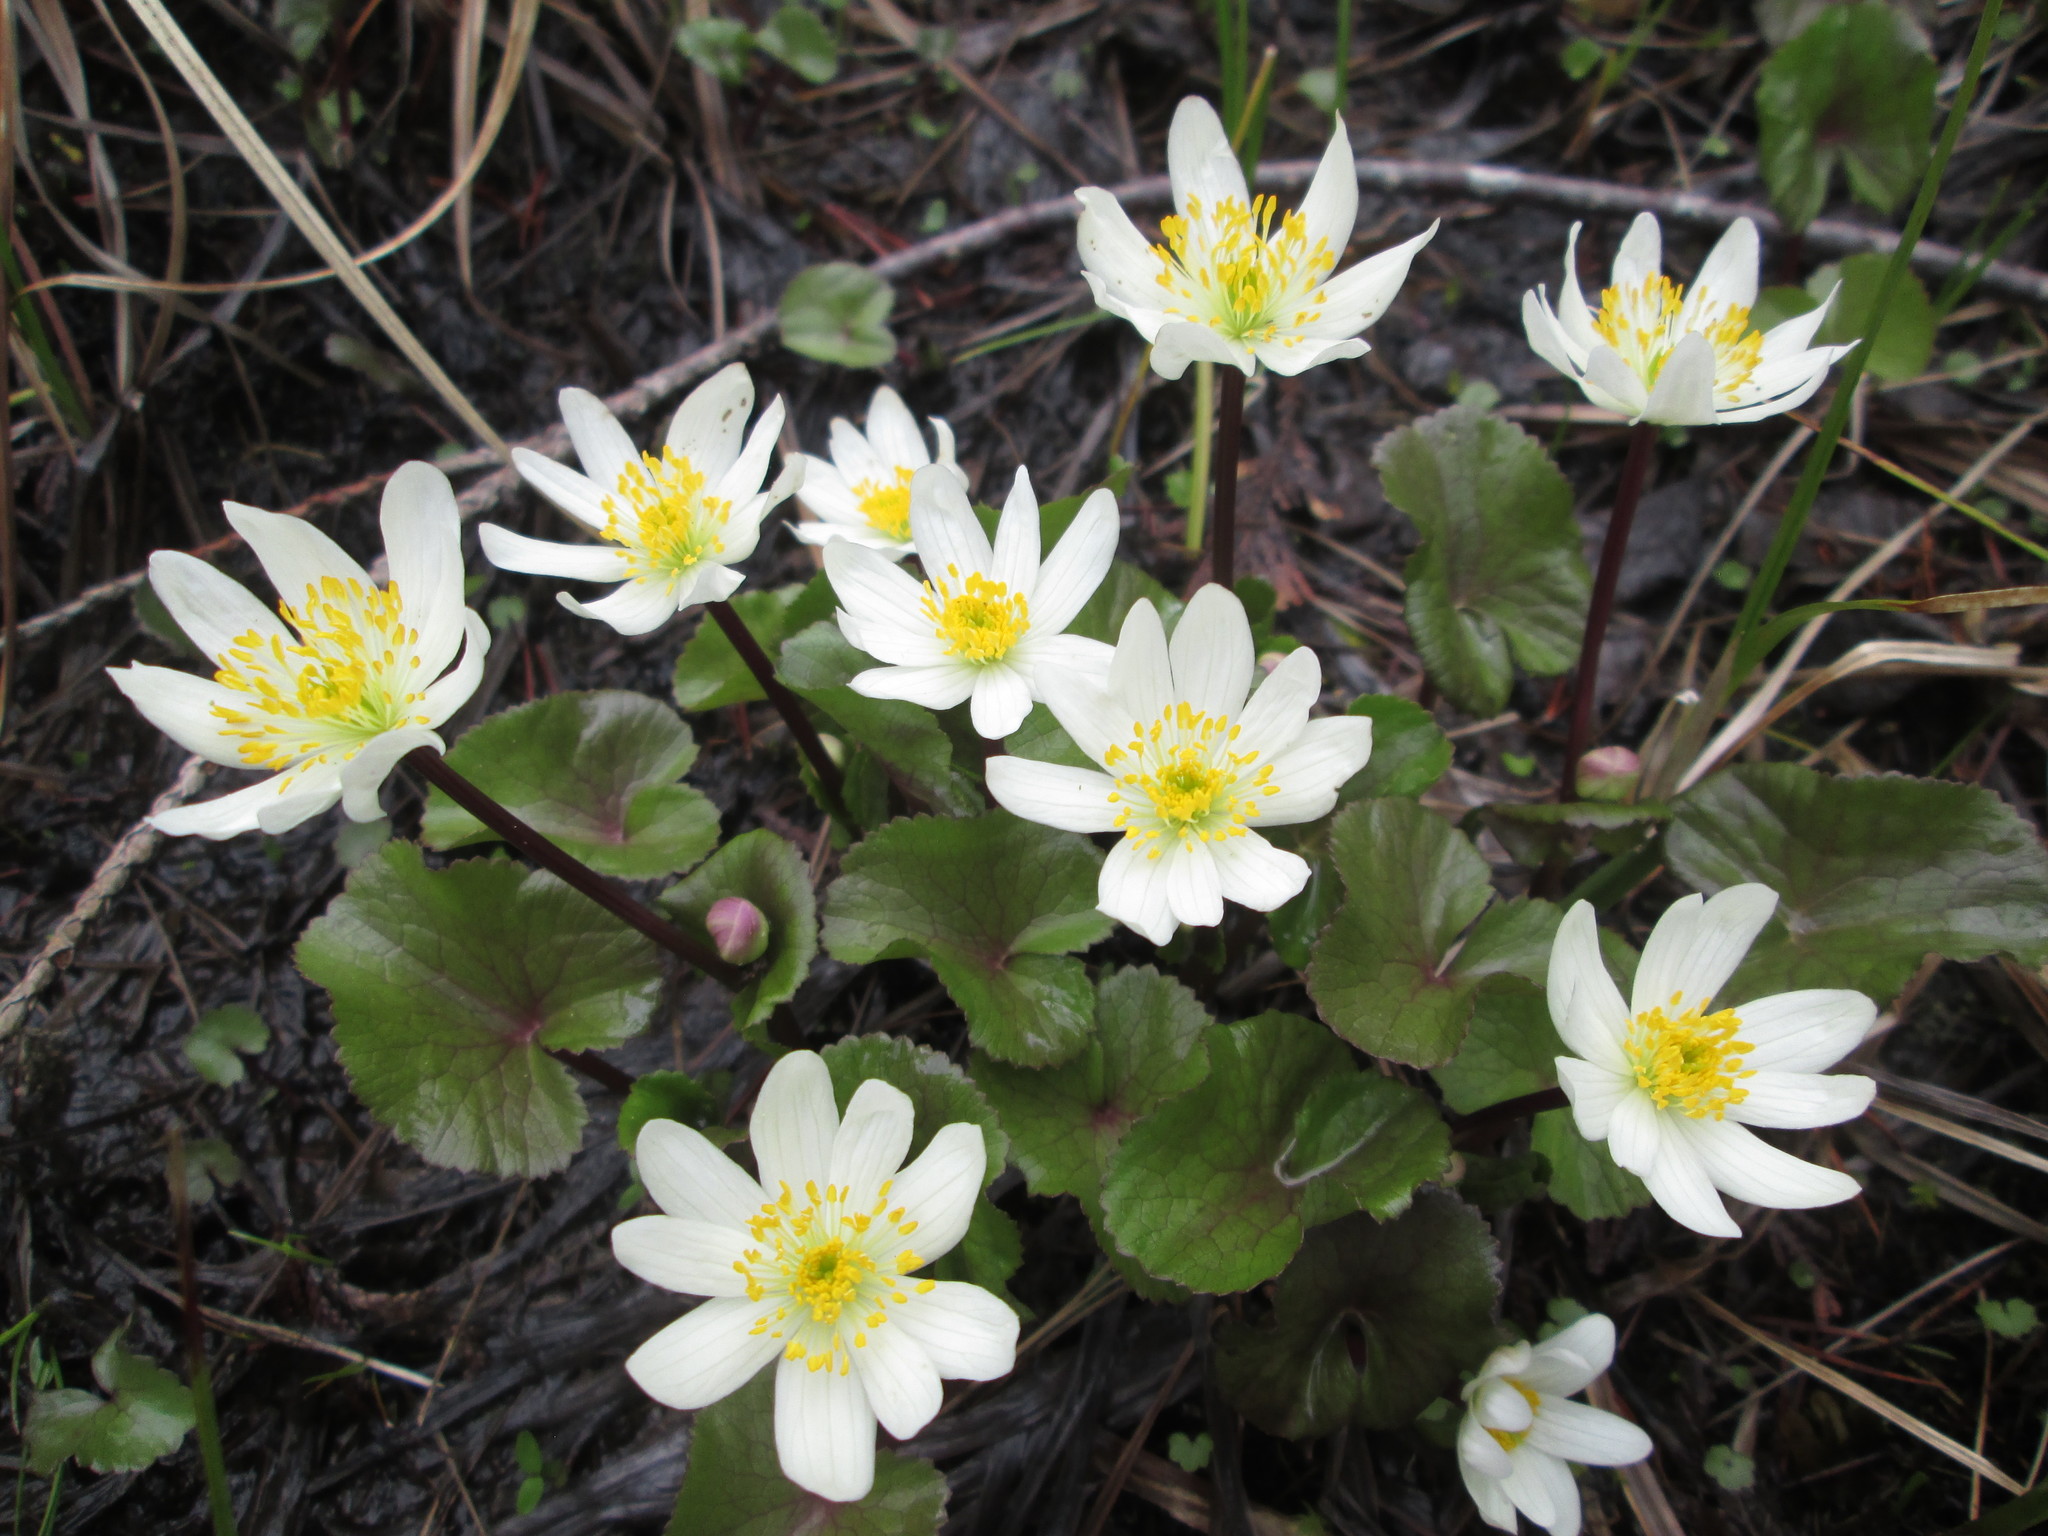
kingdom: Plantae
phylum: Tracheophyta
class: Magnoliopsida
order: Ranunculales
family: Ranunculaceae
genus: Caltha
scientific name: Caltha leptosepala
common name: Elkslip
